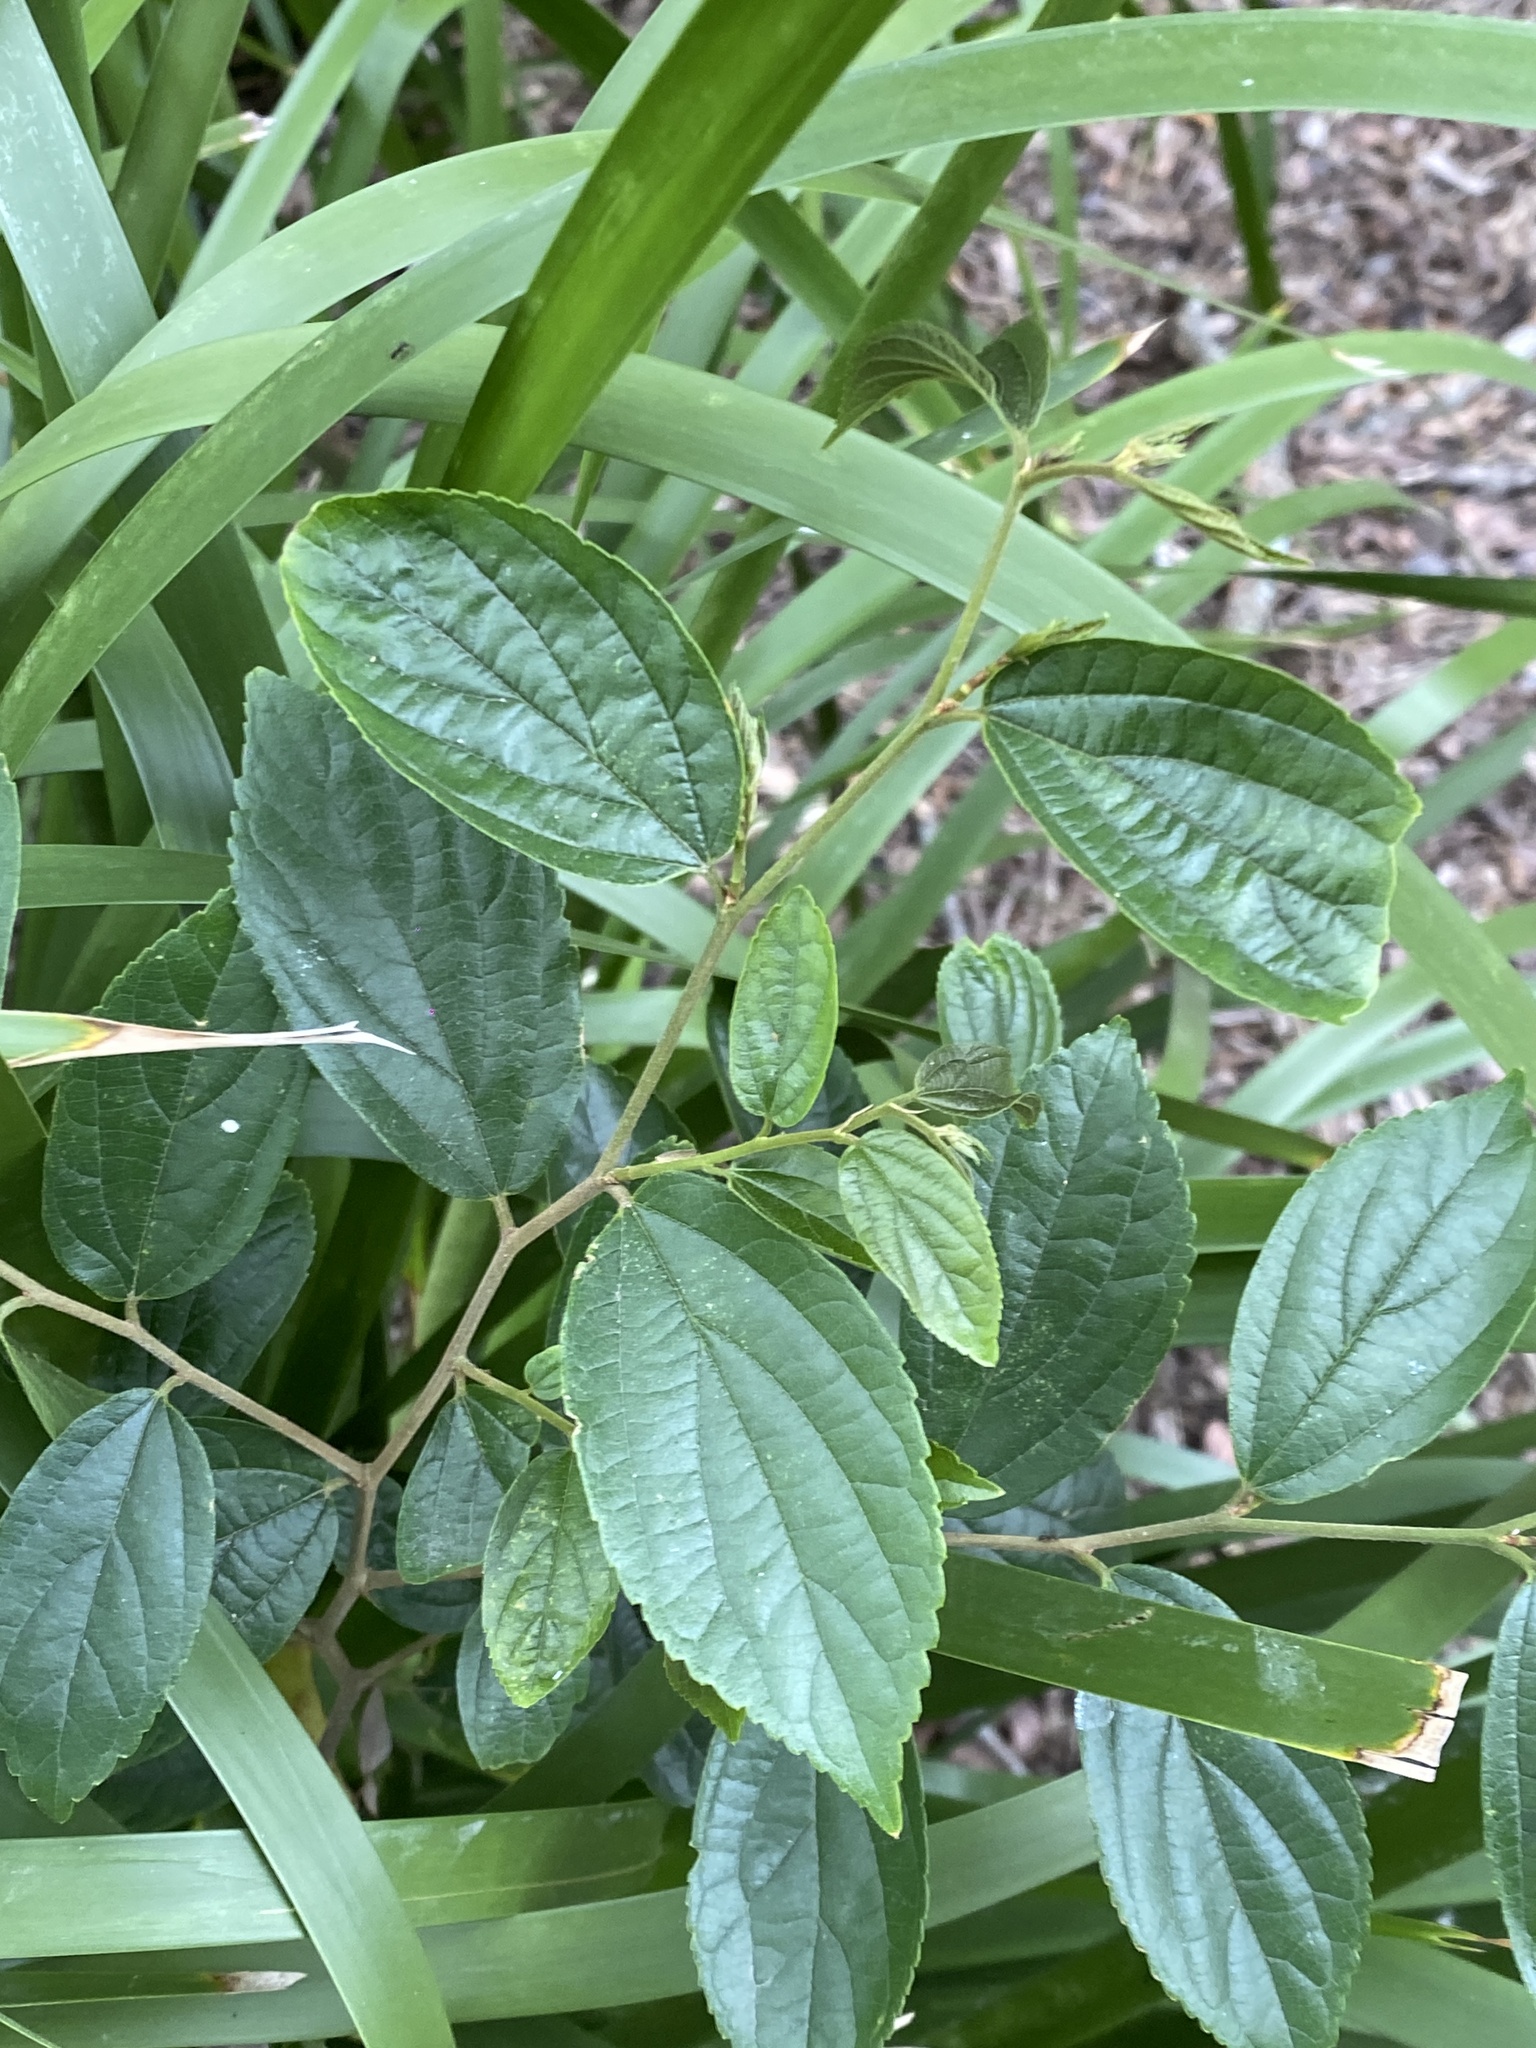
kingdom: Plantae
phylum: Tracheophyta
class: Magnoliopsida
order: Rosales
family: Cannabaceae
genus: Celtis
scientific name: Celtis sinensis
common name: Chinese hackberry
